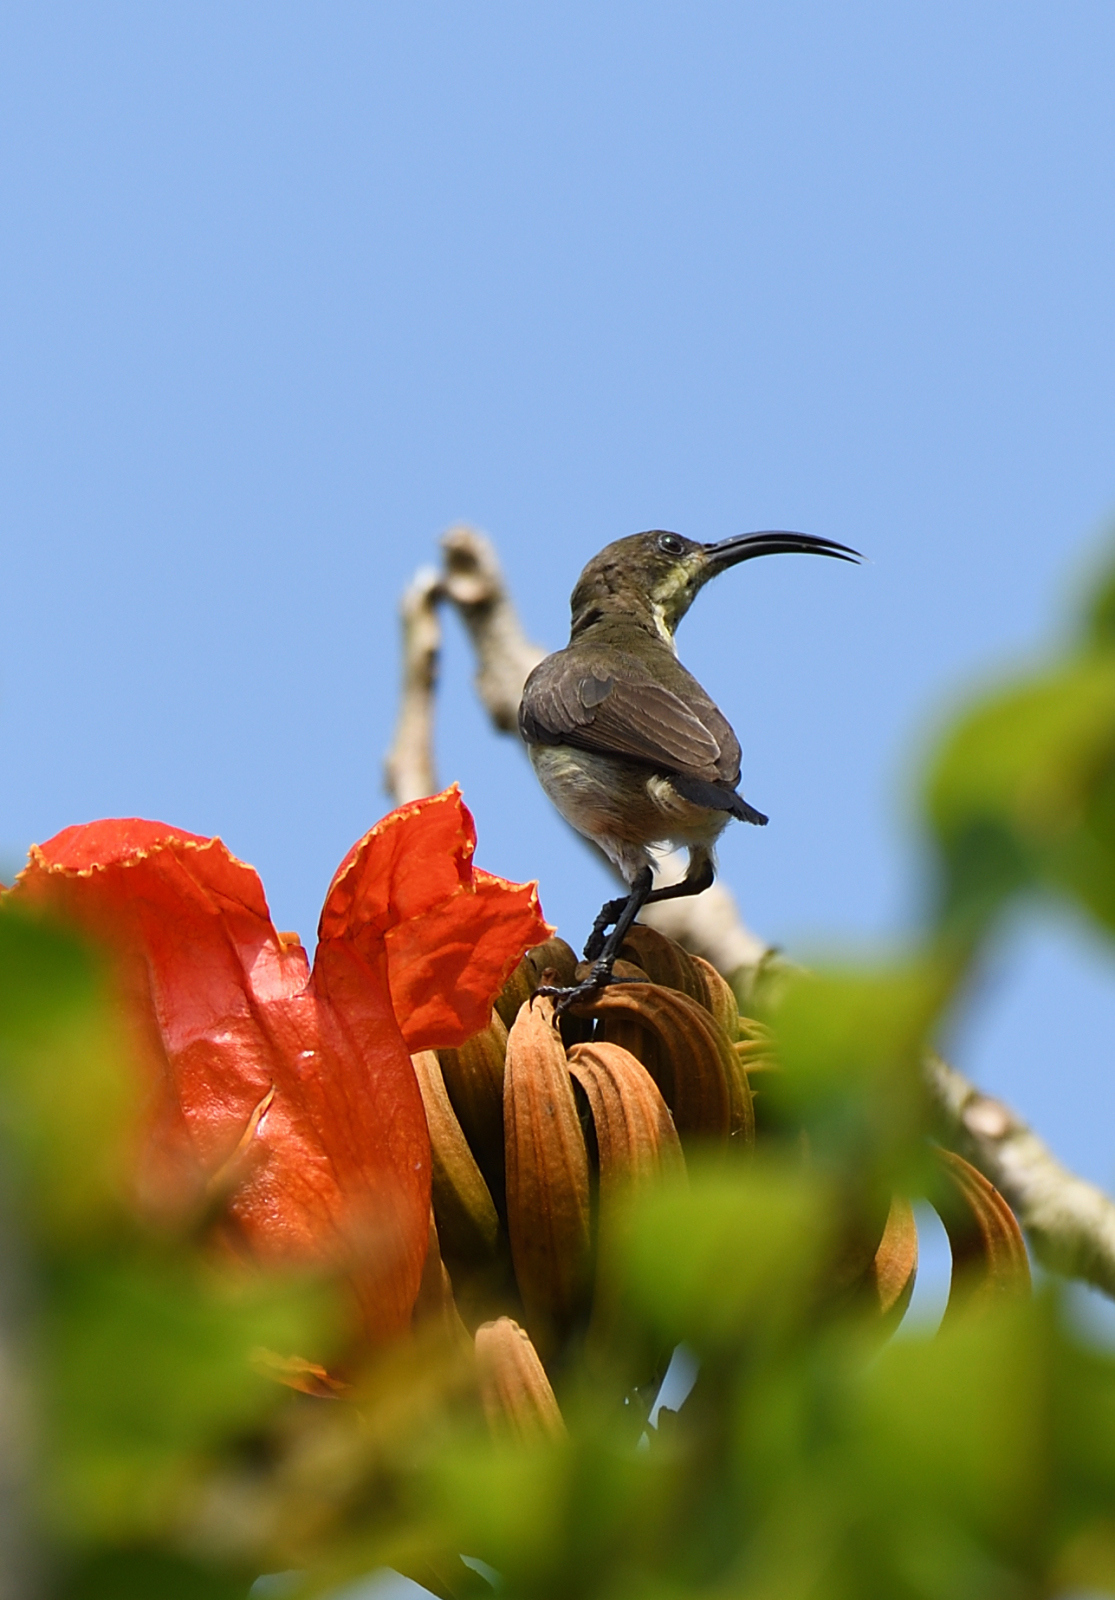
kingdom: Animalia
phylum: Chordata
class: Aves
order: Passeriformes
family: Nectariniidae
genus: Cinnyris
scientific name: Cinnyris lotenius
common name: Loten's sunbird
